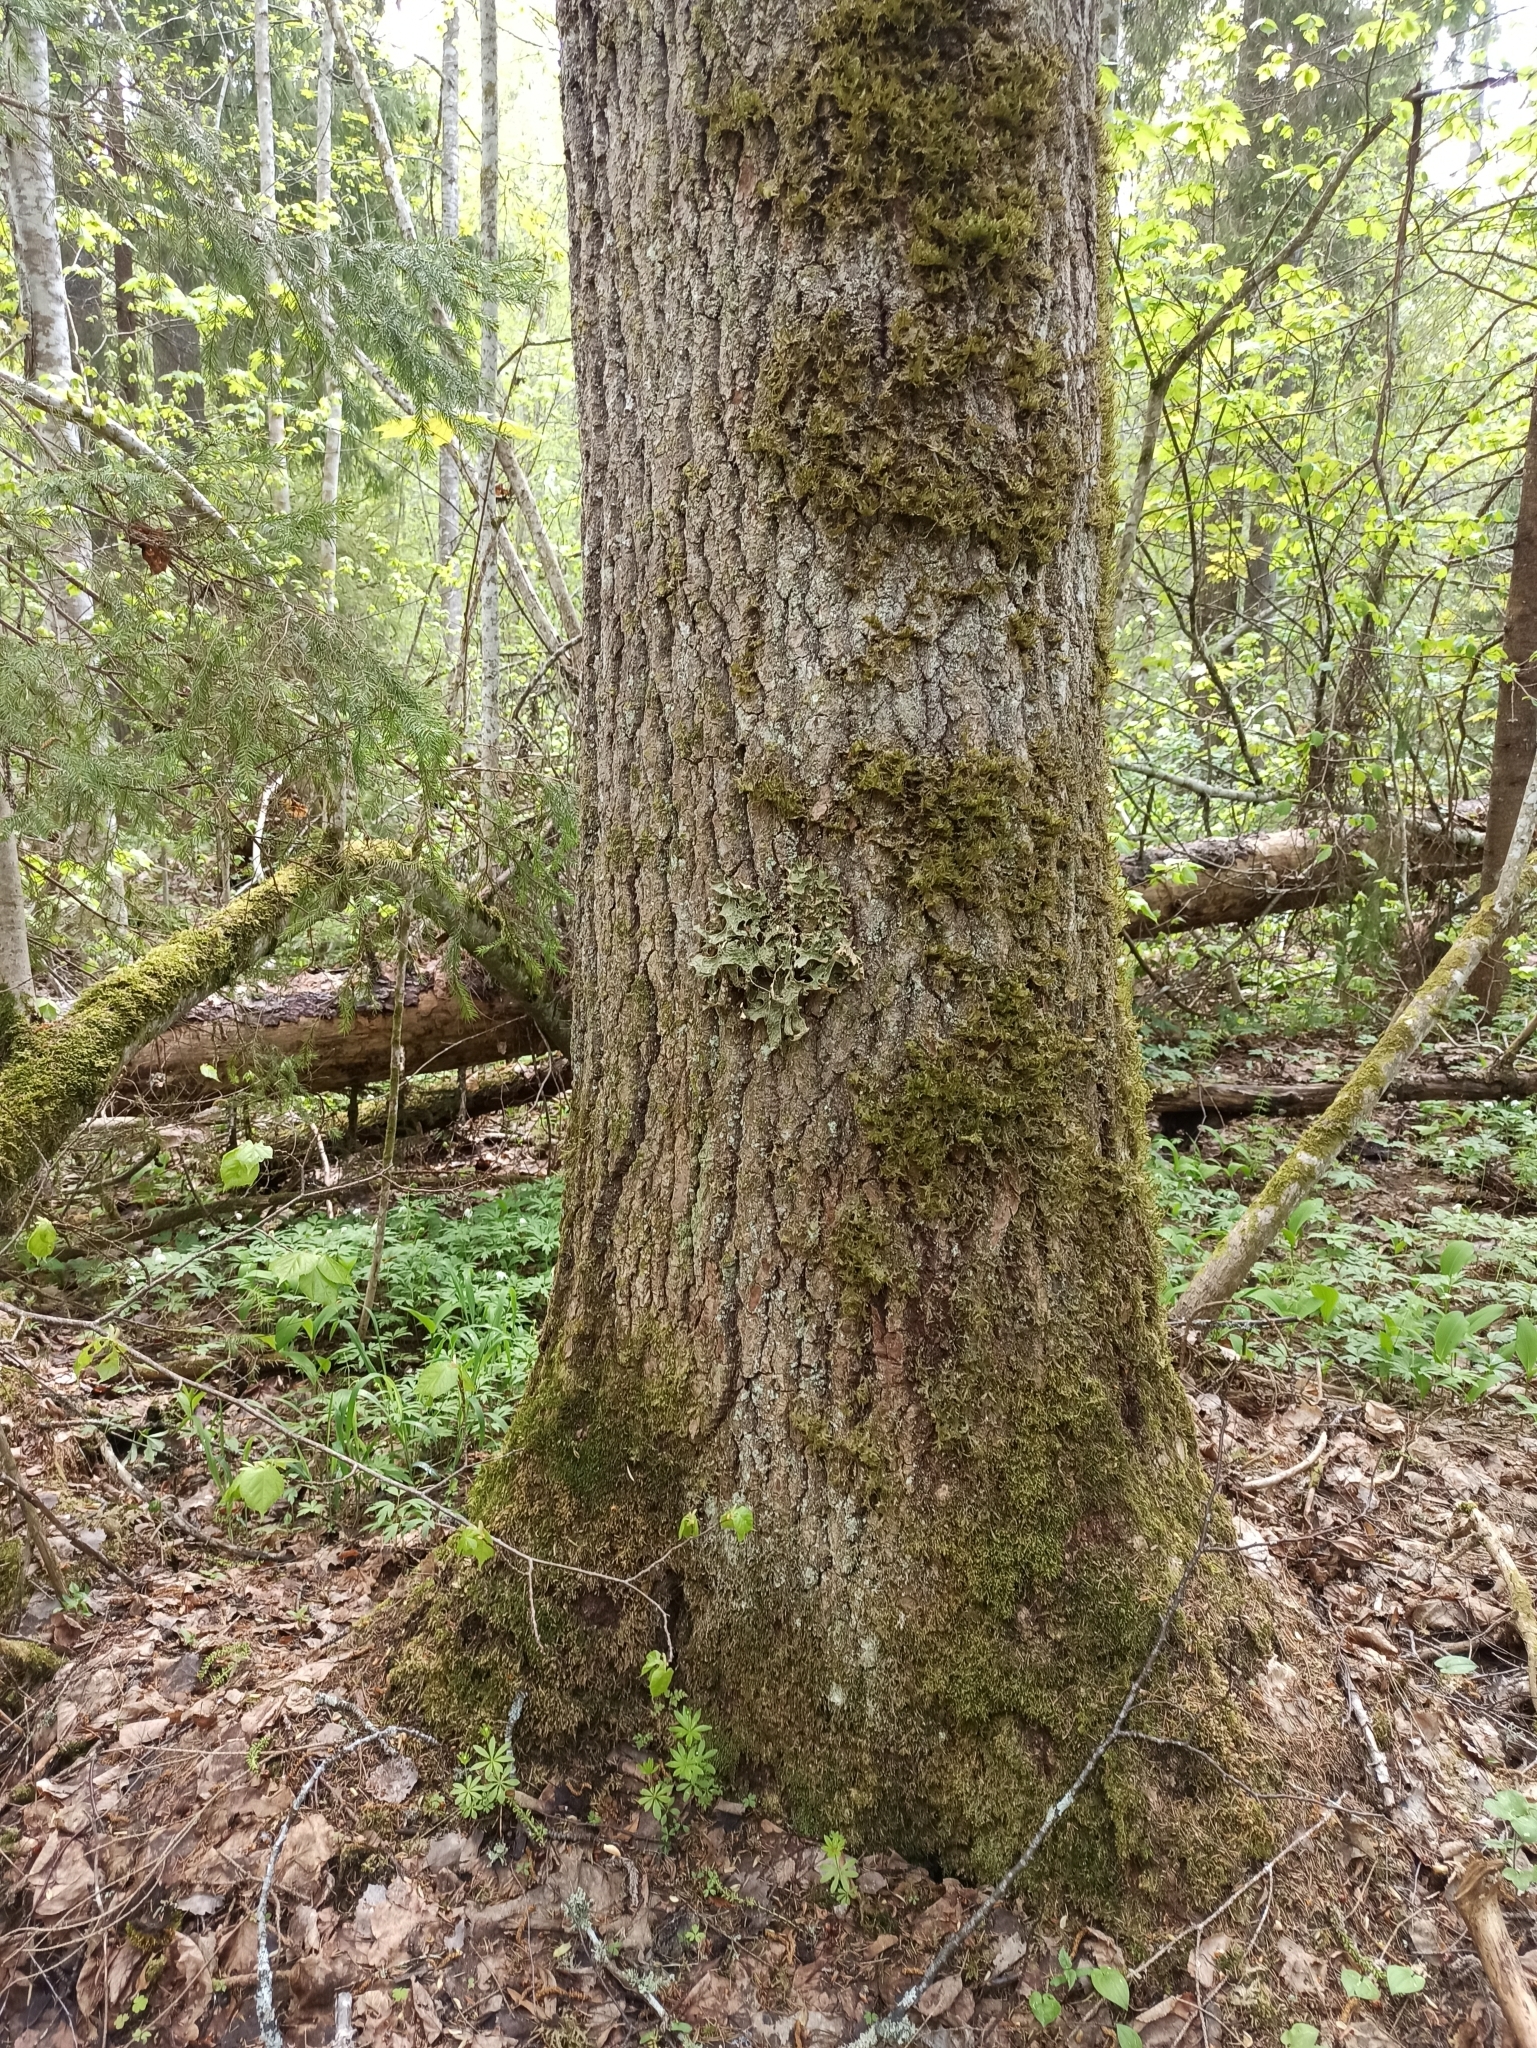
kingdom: Fungi
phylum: Ascomycota
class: Lecanoromycetes
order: Peltigerales
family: Lobariaceae
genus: Lobaria
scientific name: Lobaria pulmonaria
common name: Lungwort
